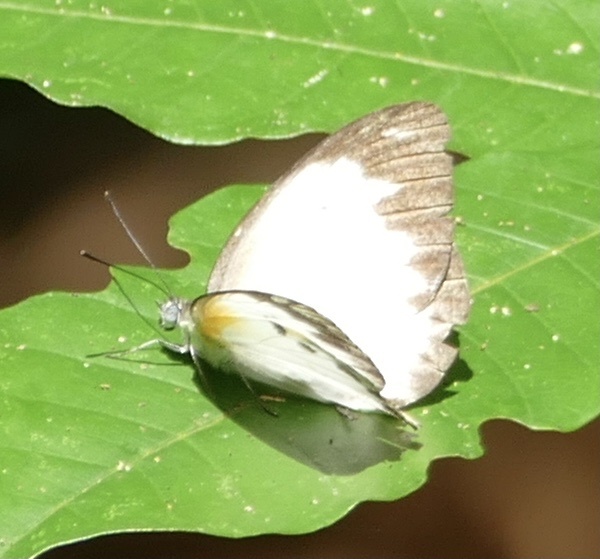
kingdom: Animalia
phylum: Arthropoda
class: Insecta
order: Lepidoptera
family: Pieridae
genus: Nepheronia
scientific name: Nepheronia thalassina
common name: Cambridge vagrant
